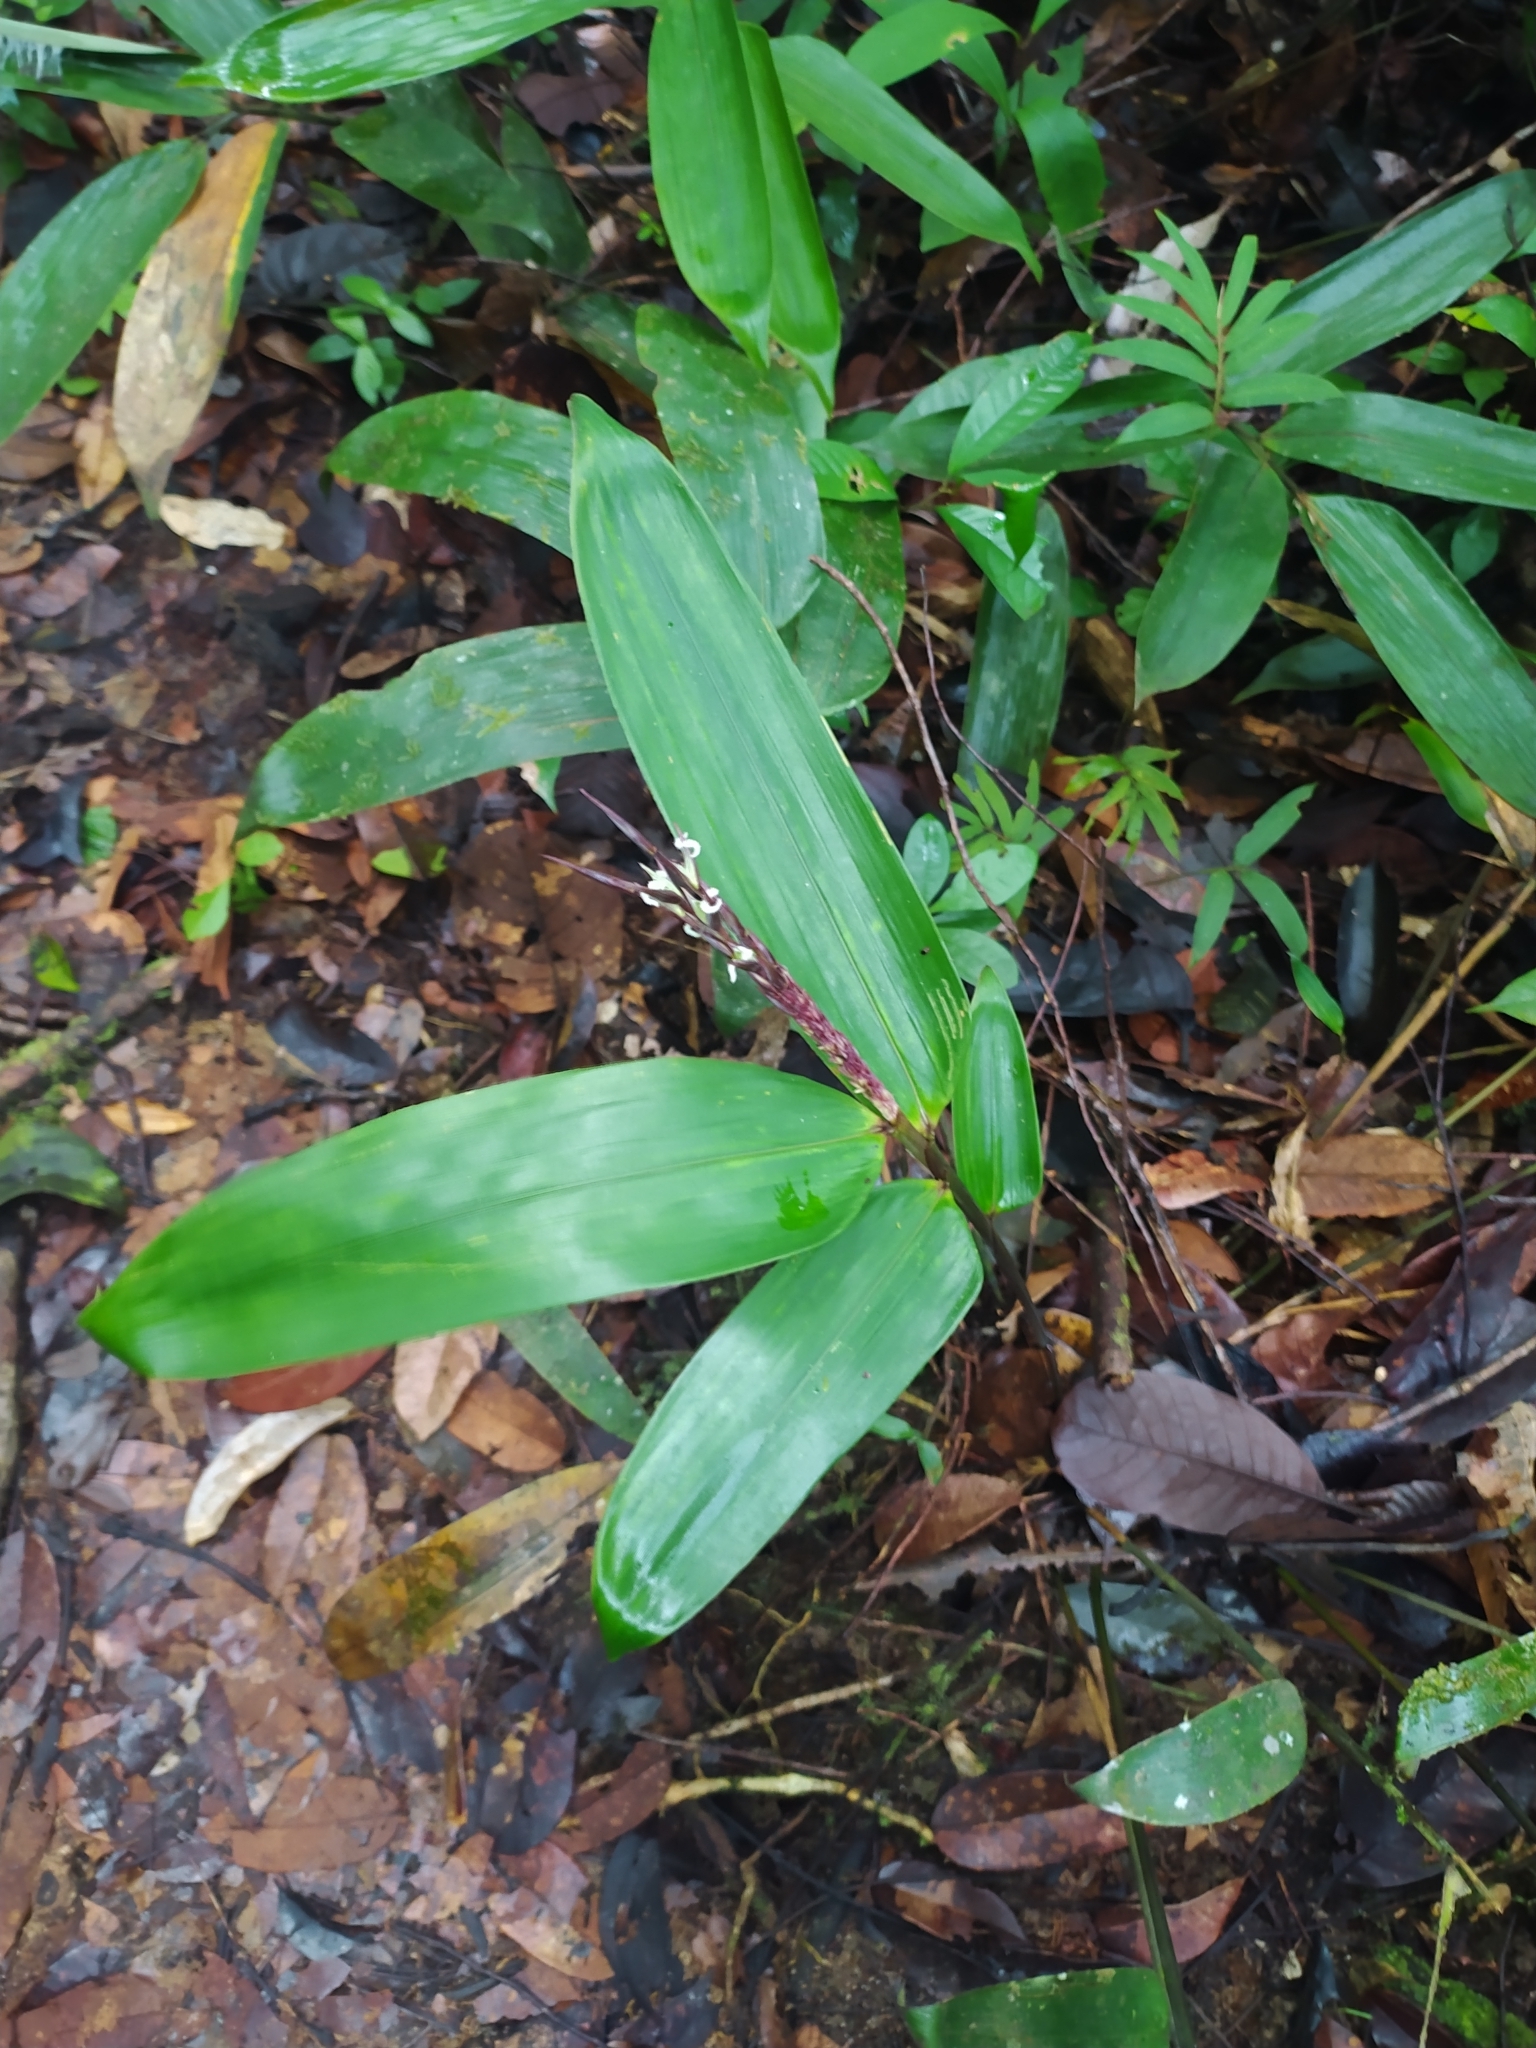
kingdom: Plantae
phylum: Tracheophyta
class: Liliopsida
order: Poales
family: Poaceae
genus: Olyra
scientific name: Olyra obliquifolia
